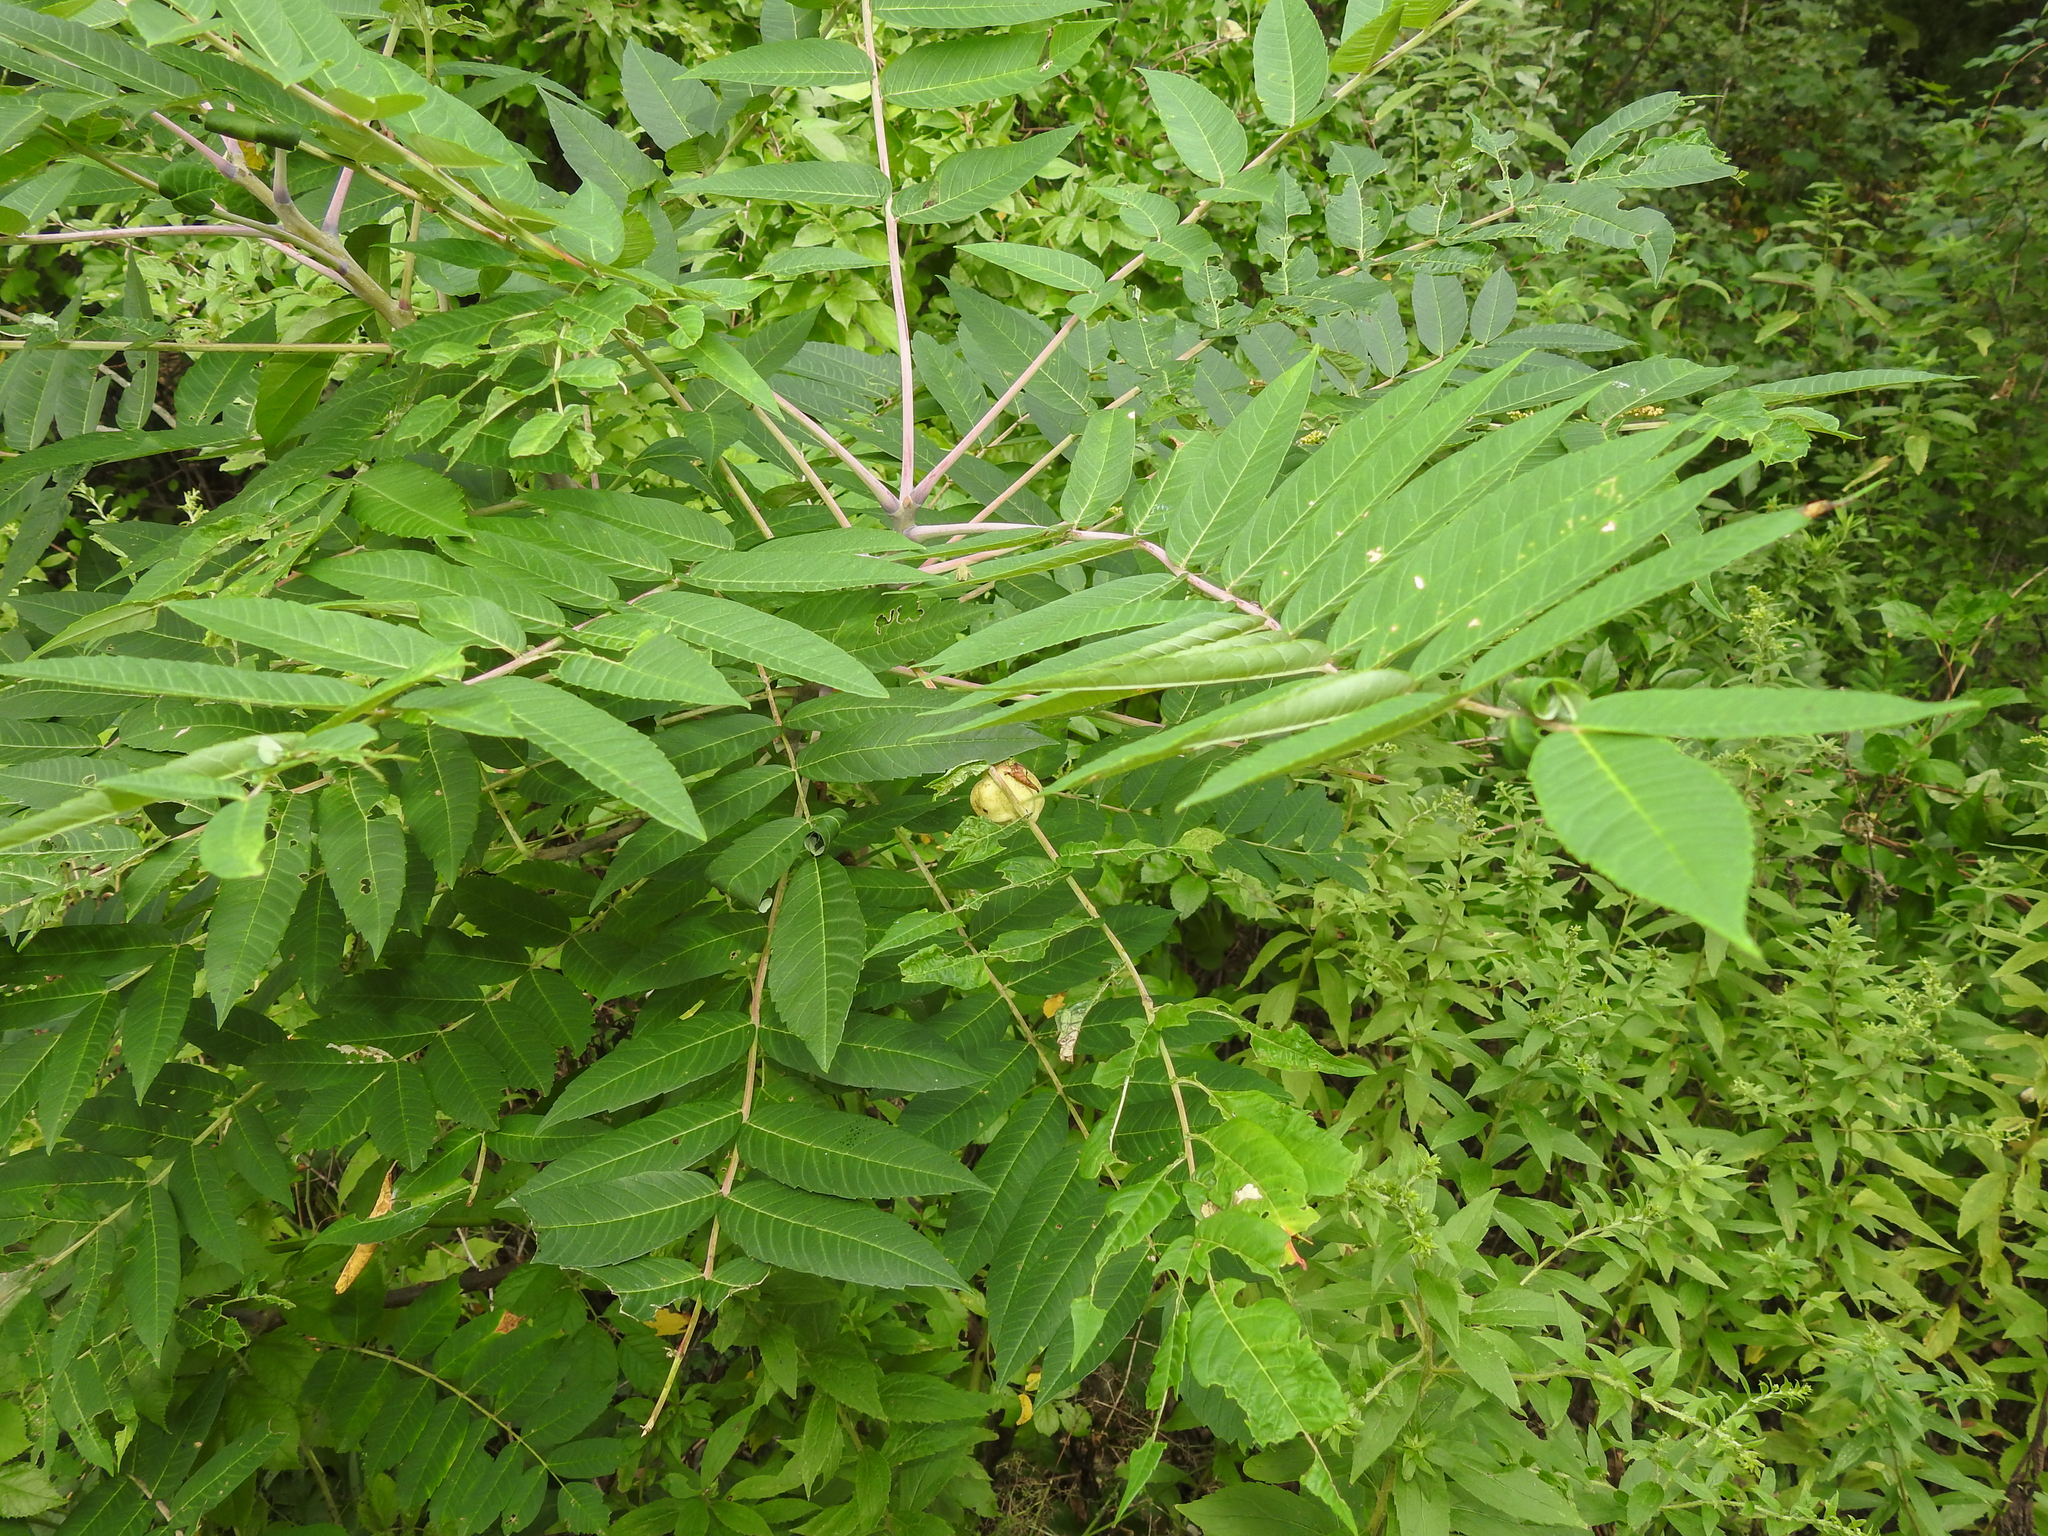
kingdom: Animalia
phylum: Arthropoda
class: Insecta
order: Hemiptera
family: Aphididae
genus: Melaphis
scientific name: Melaphis rhois
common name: Sumac gall aphid
